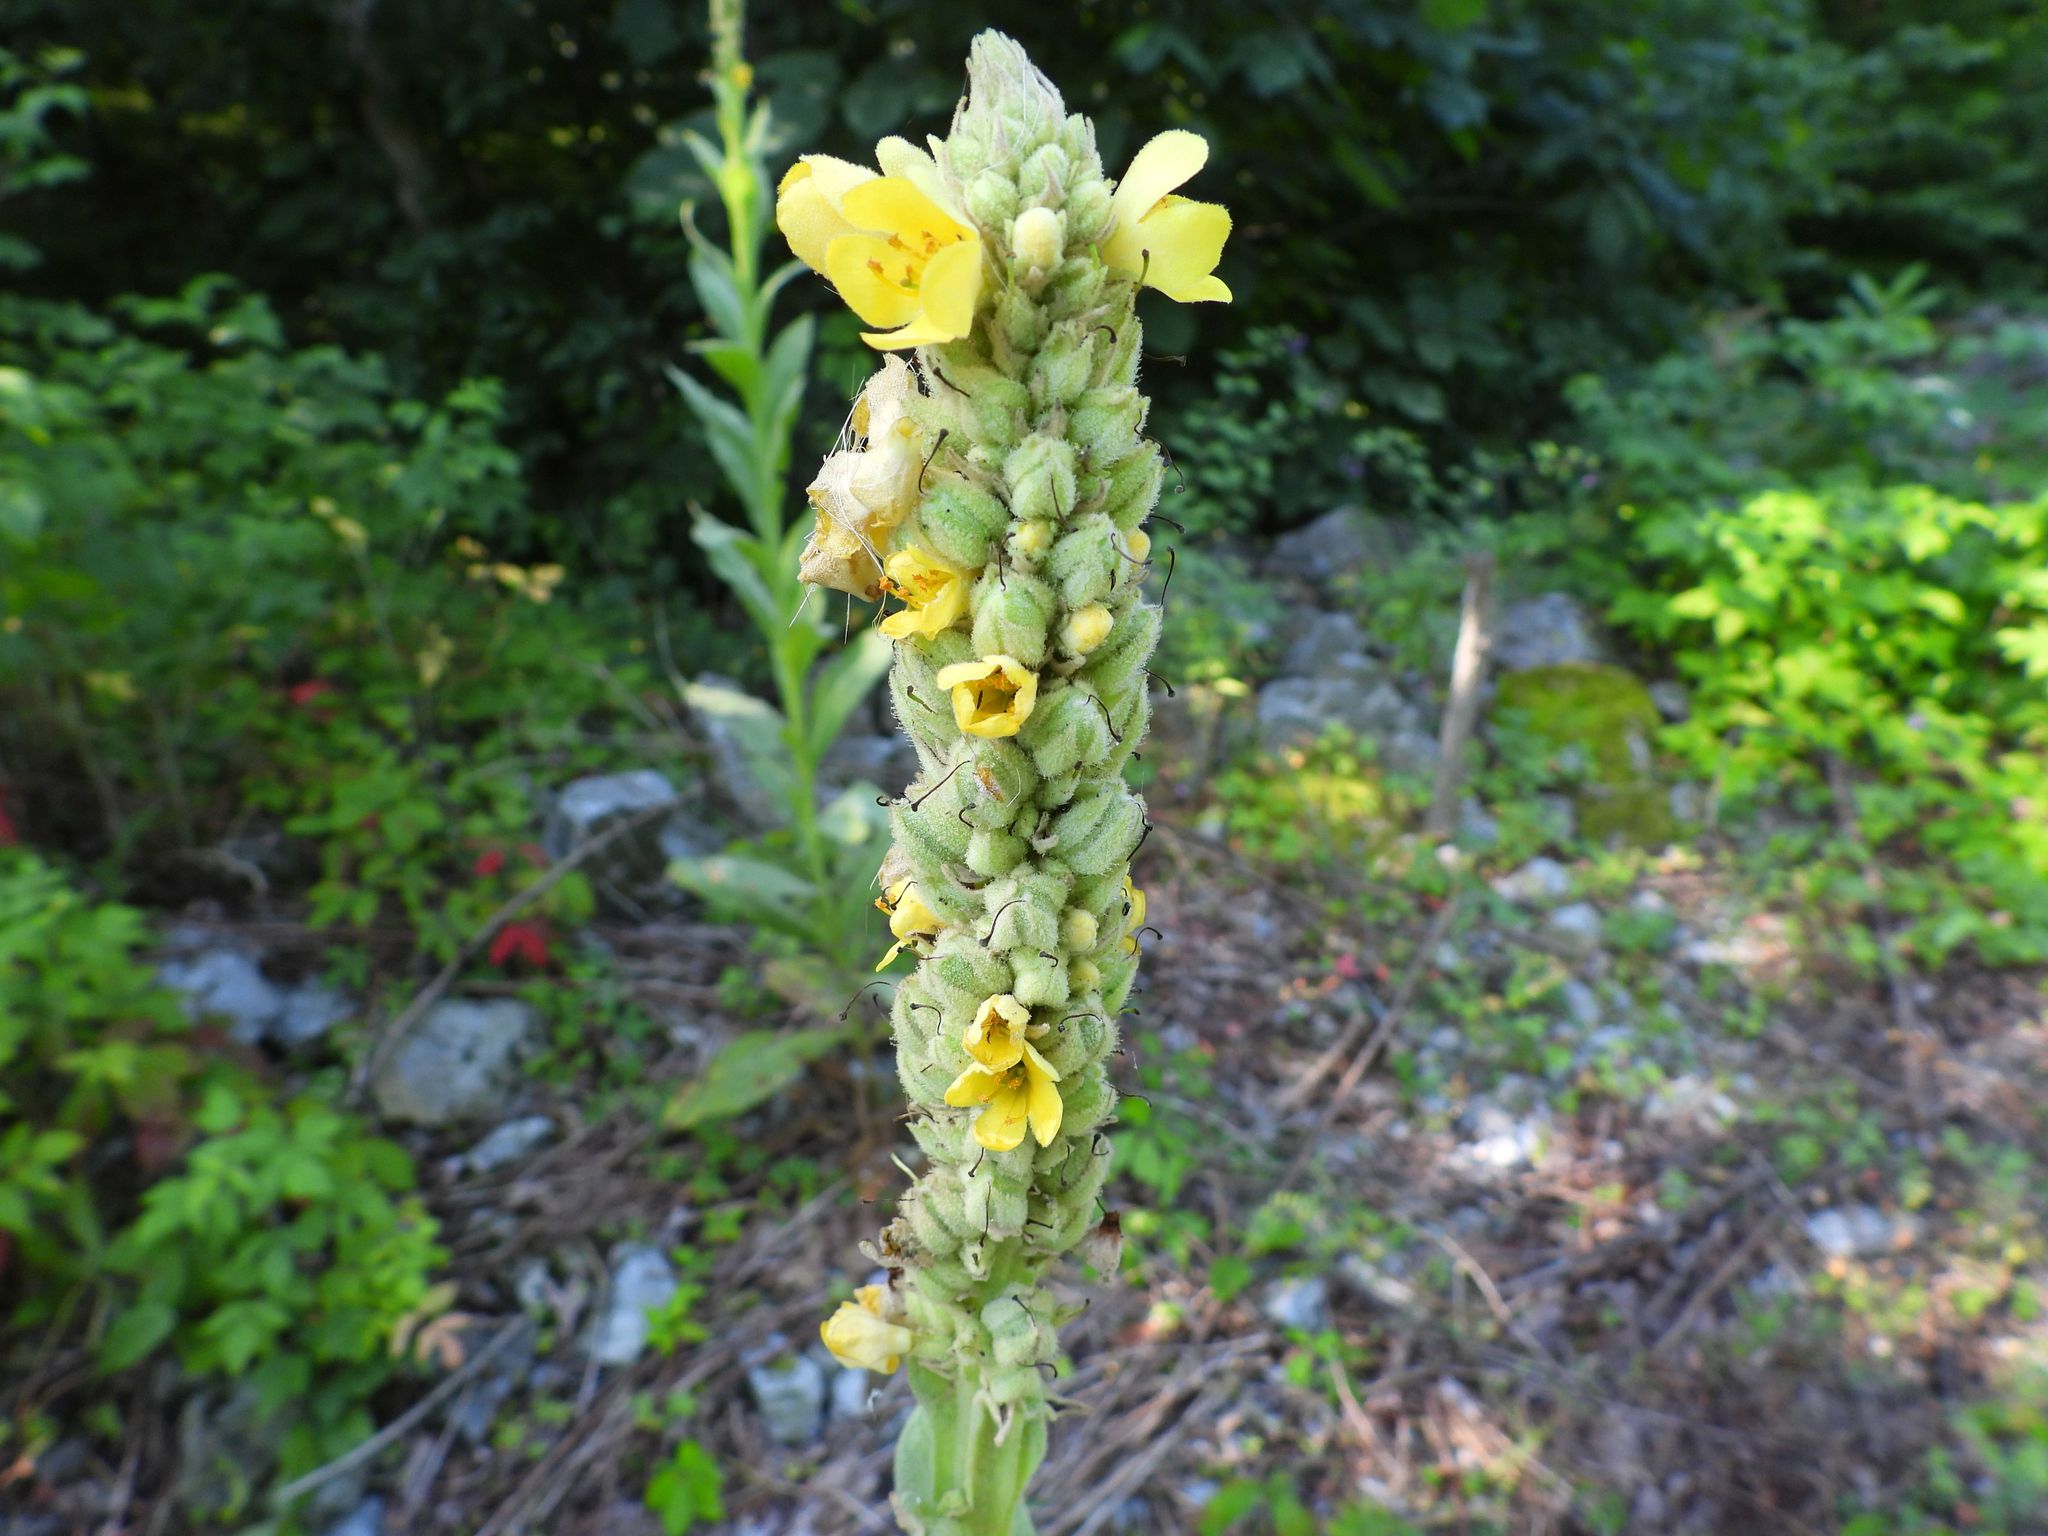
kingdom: Plantae
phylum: Tracheophyta
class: Magnoliopsida
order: Lamiales
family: Scrophulariaceae
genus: Verbascum
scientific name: Verbascum thapsus
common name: Common mullein
